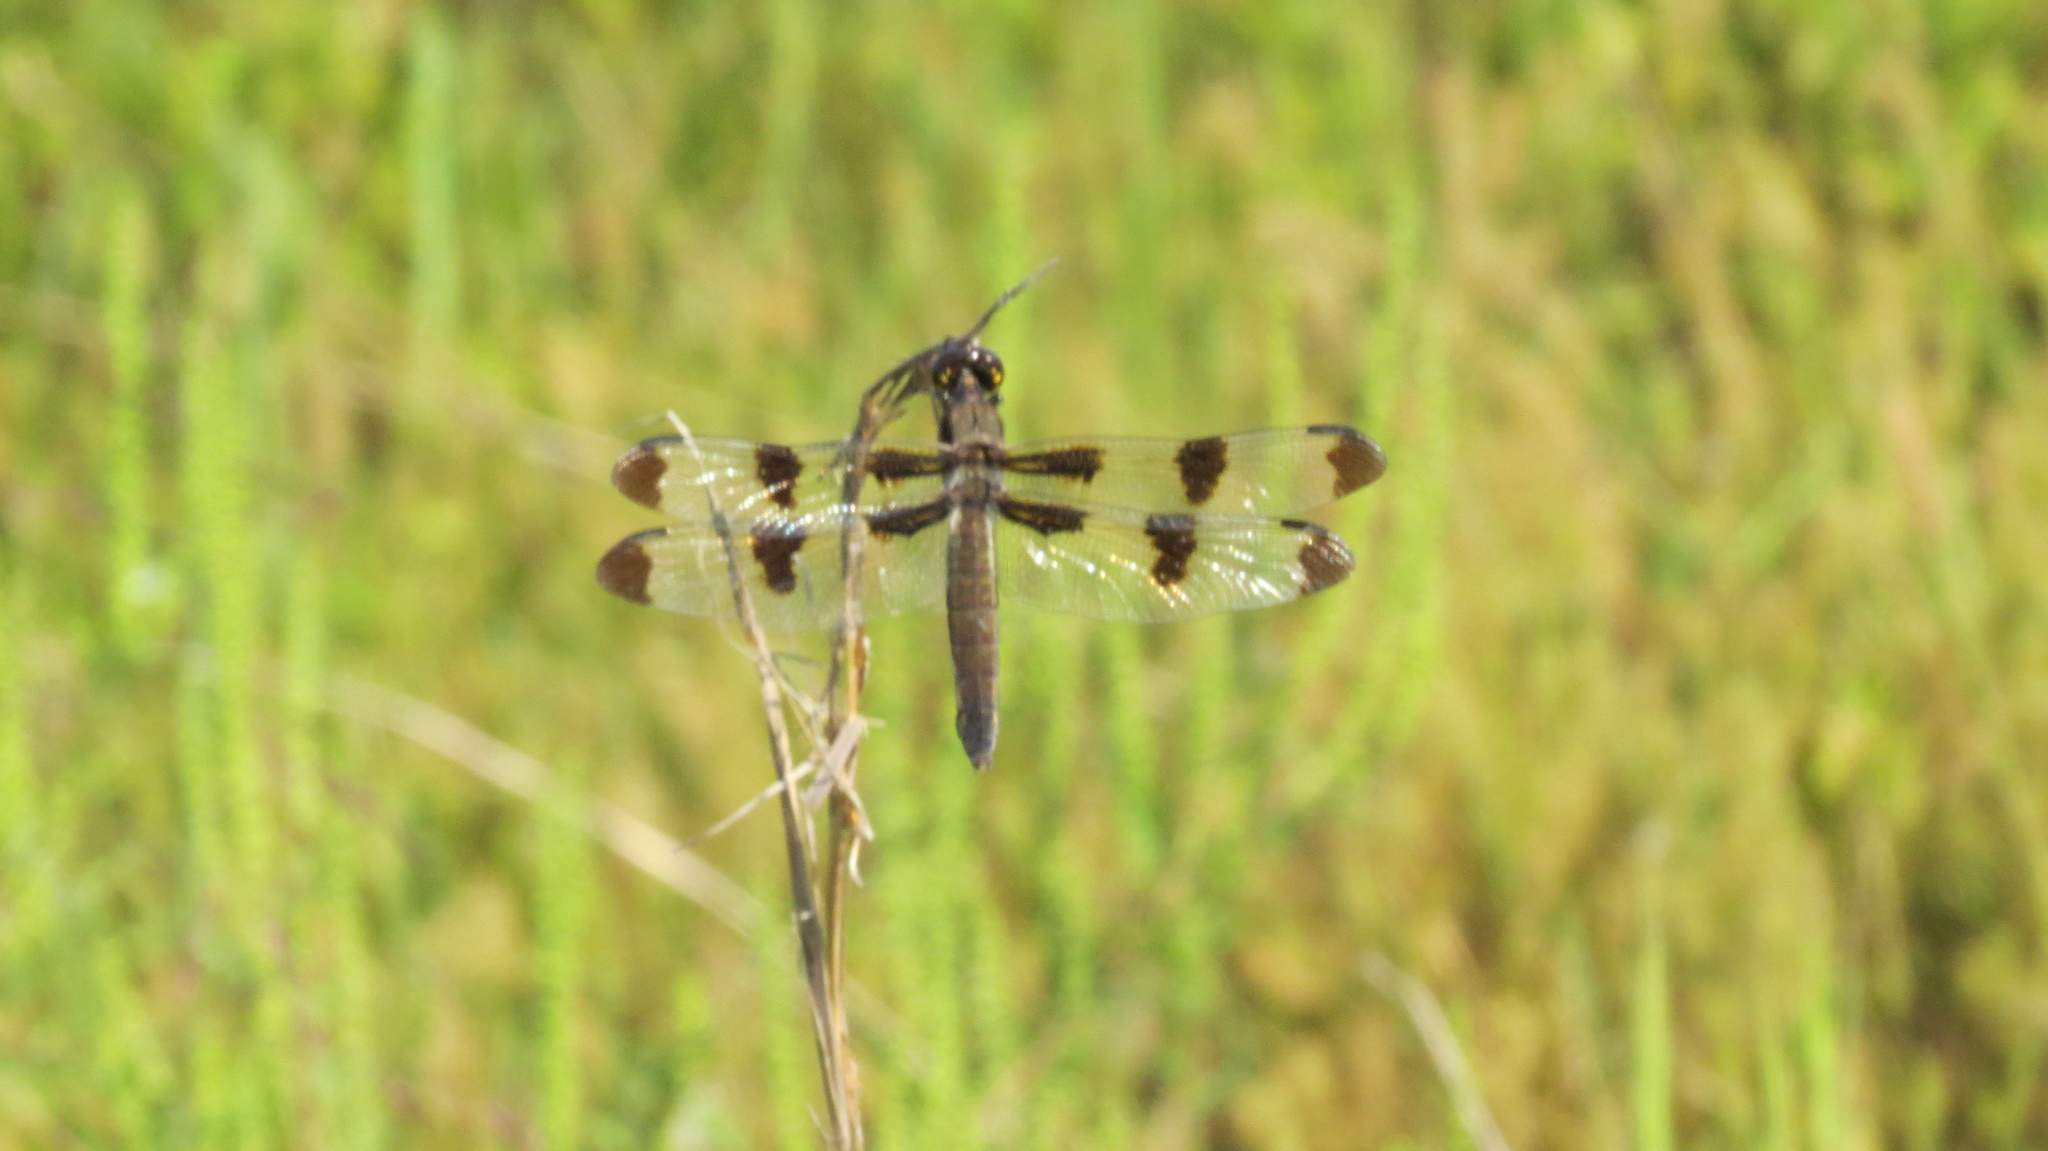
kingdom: Animalia
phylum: Arthropoda
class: Insecta
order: Odonata
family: Libellulidae
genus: Libellula
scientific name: Libellula pulchella
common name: Twelve-spotted skimmer
